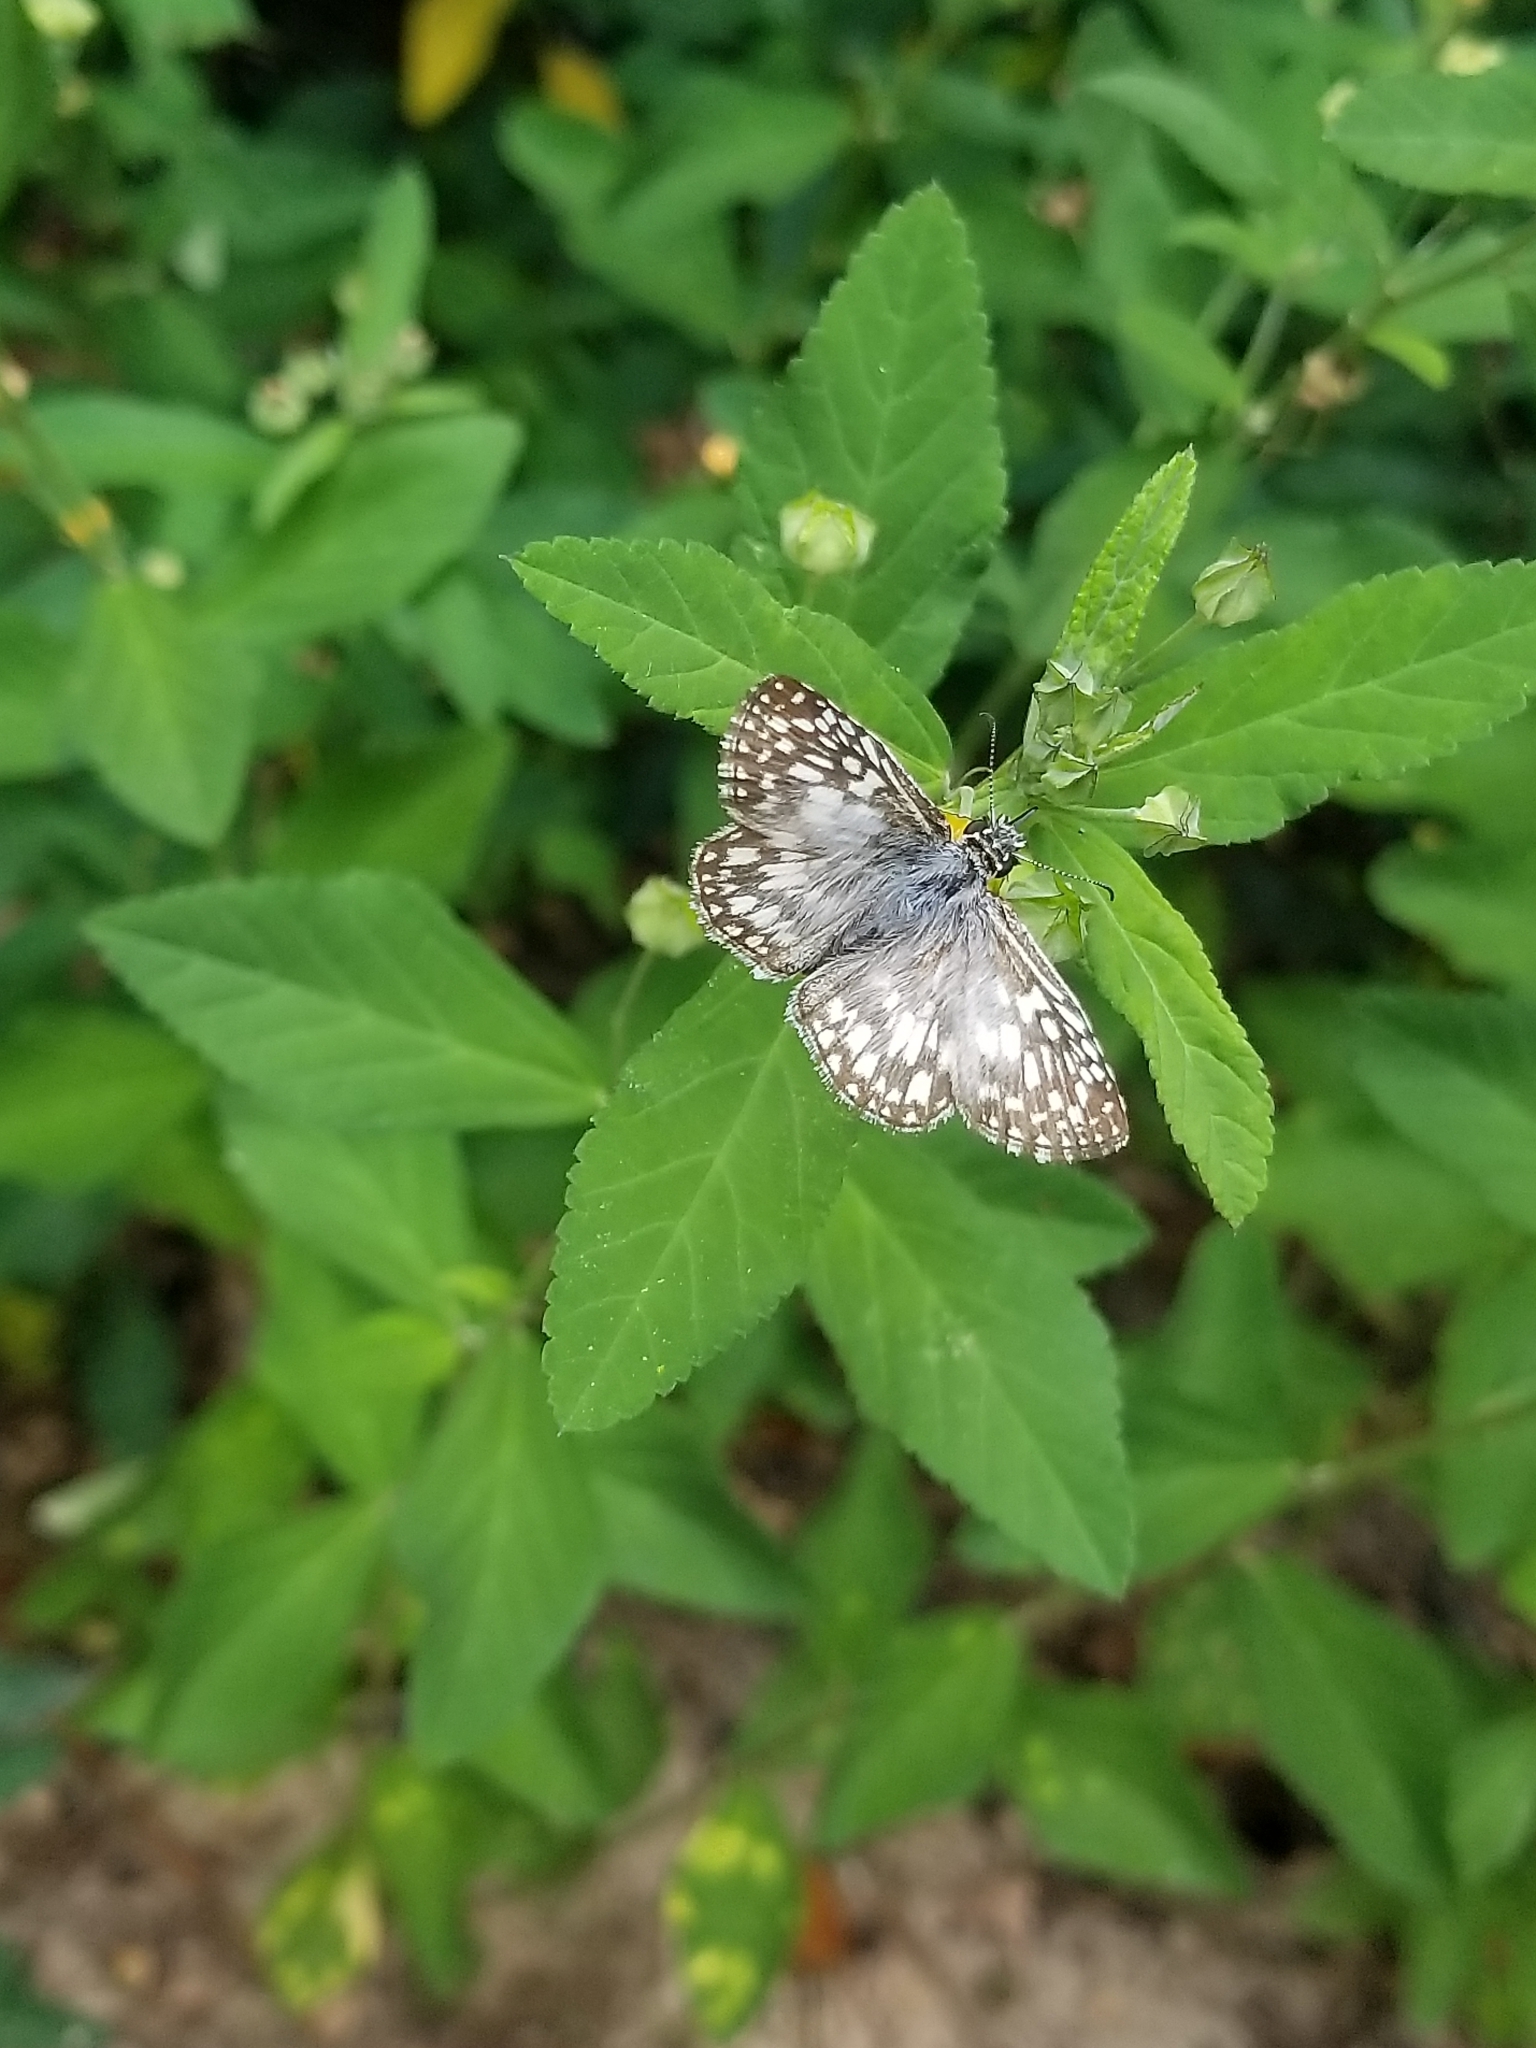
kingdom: Animalia
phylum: Arthropoda
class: Insecta
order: Lepidoptera
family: Hesperiidae
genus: Pyrgus
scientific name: Pyrgus oileus
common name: Tropical checkered-skipper
